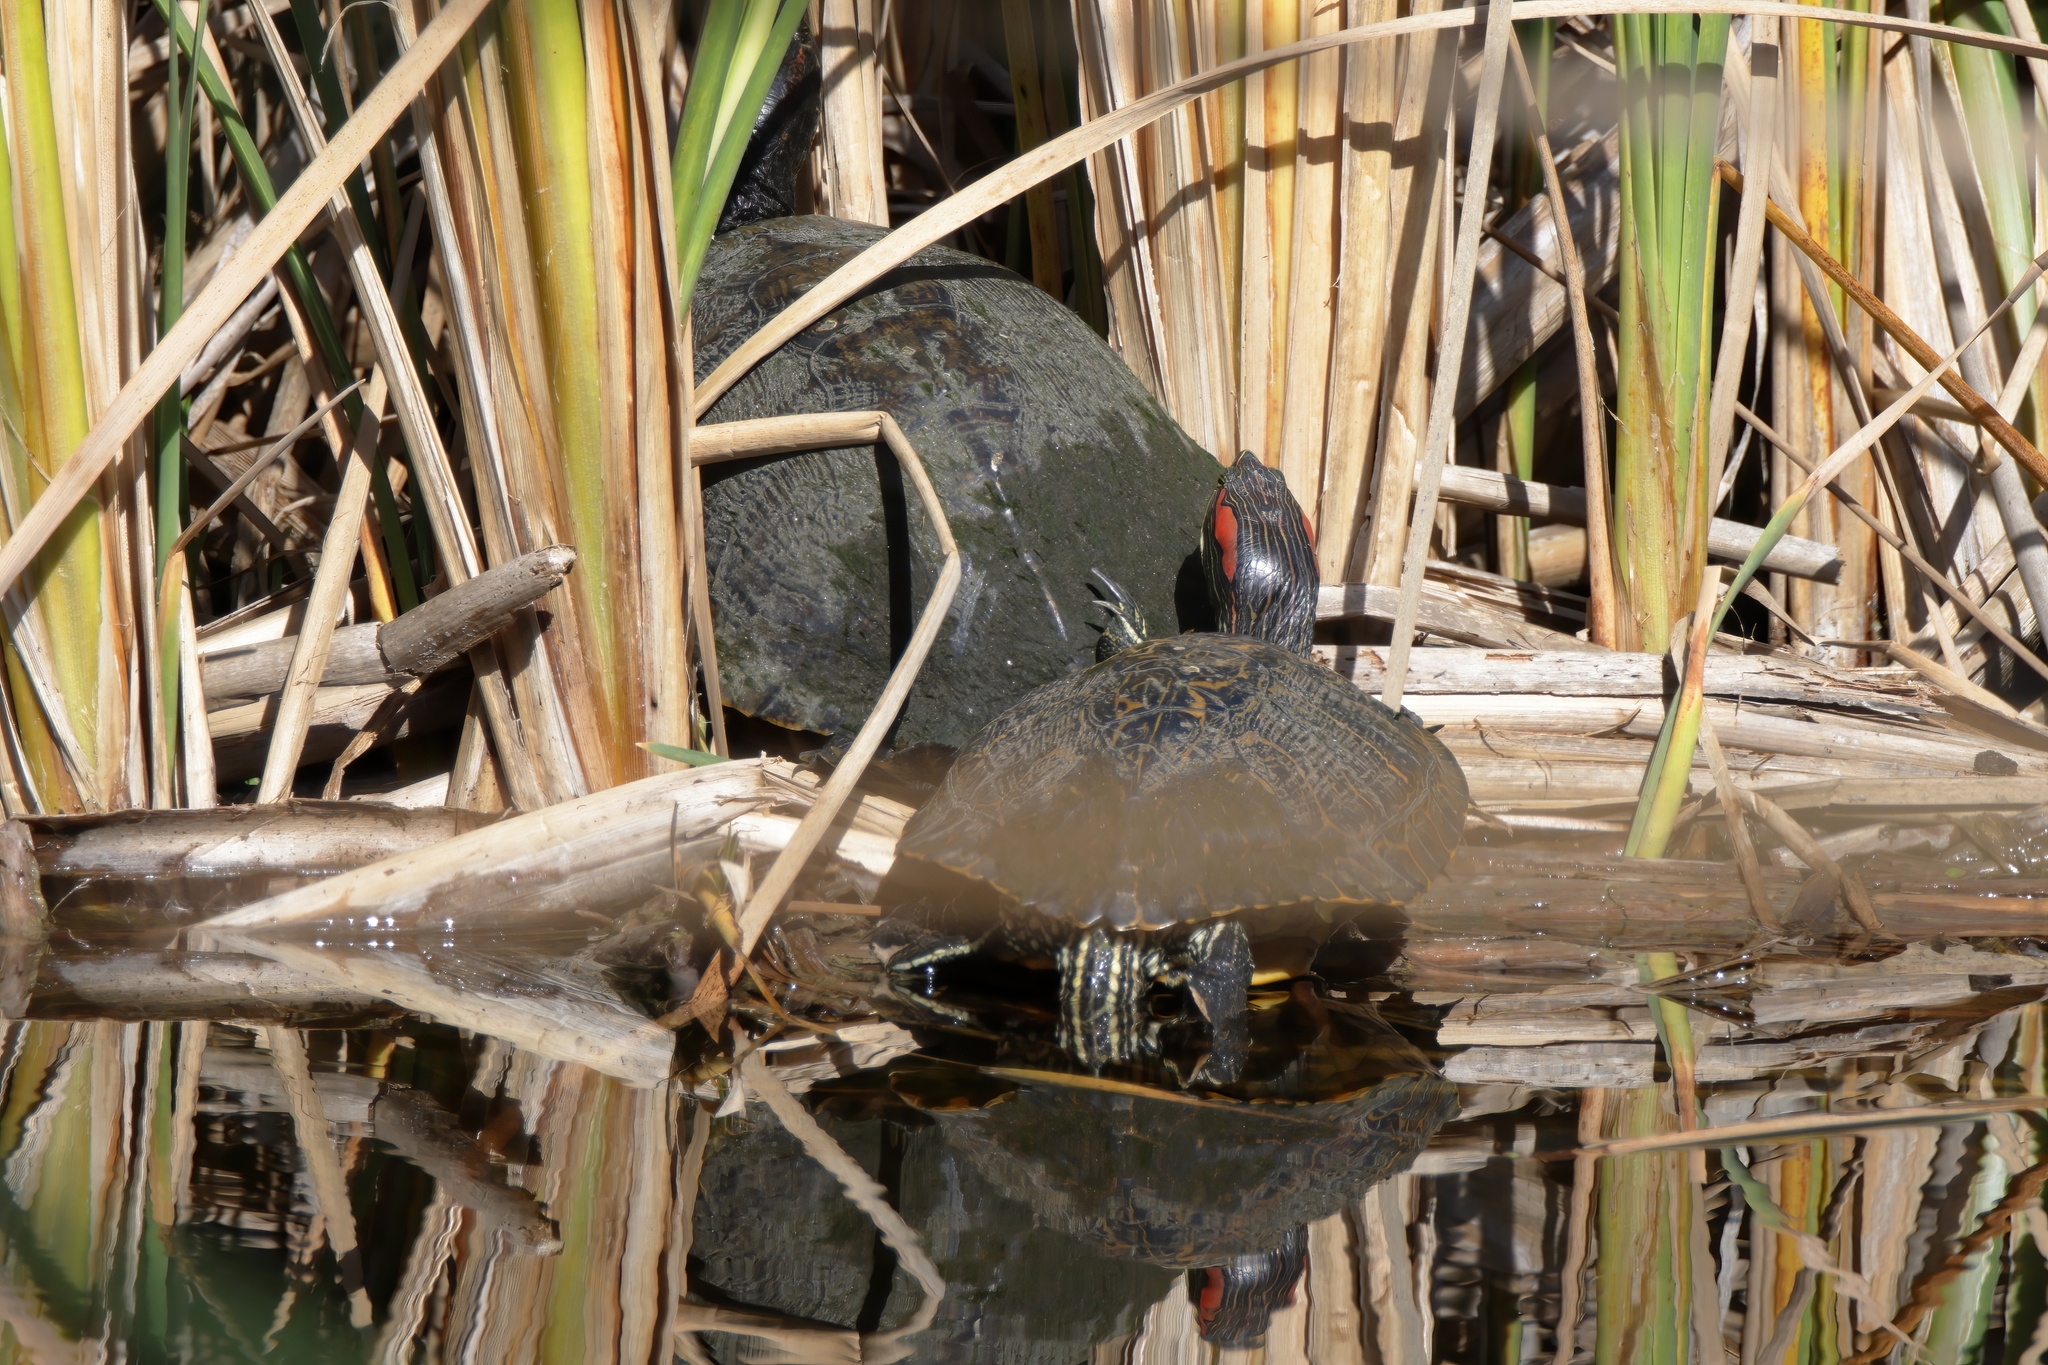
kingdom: Animalia
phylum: Chordata
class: Testudines
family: Emydidae
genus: Trachemys
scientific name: Trachemys scripta
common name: Slider
